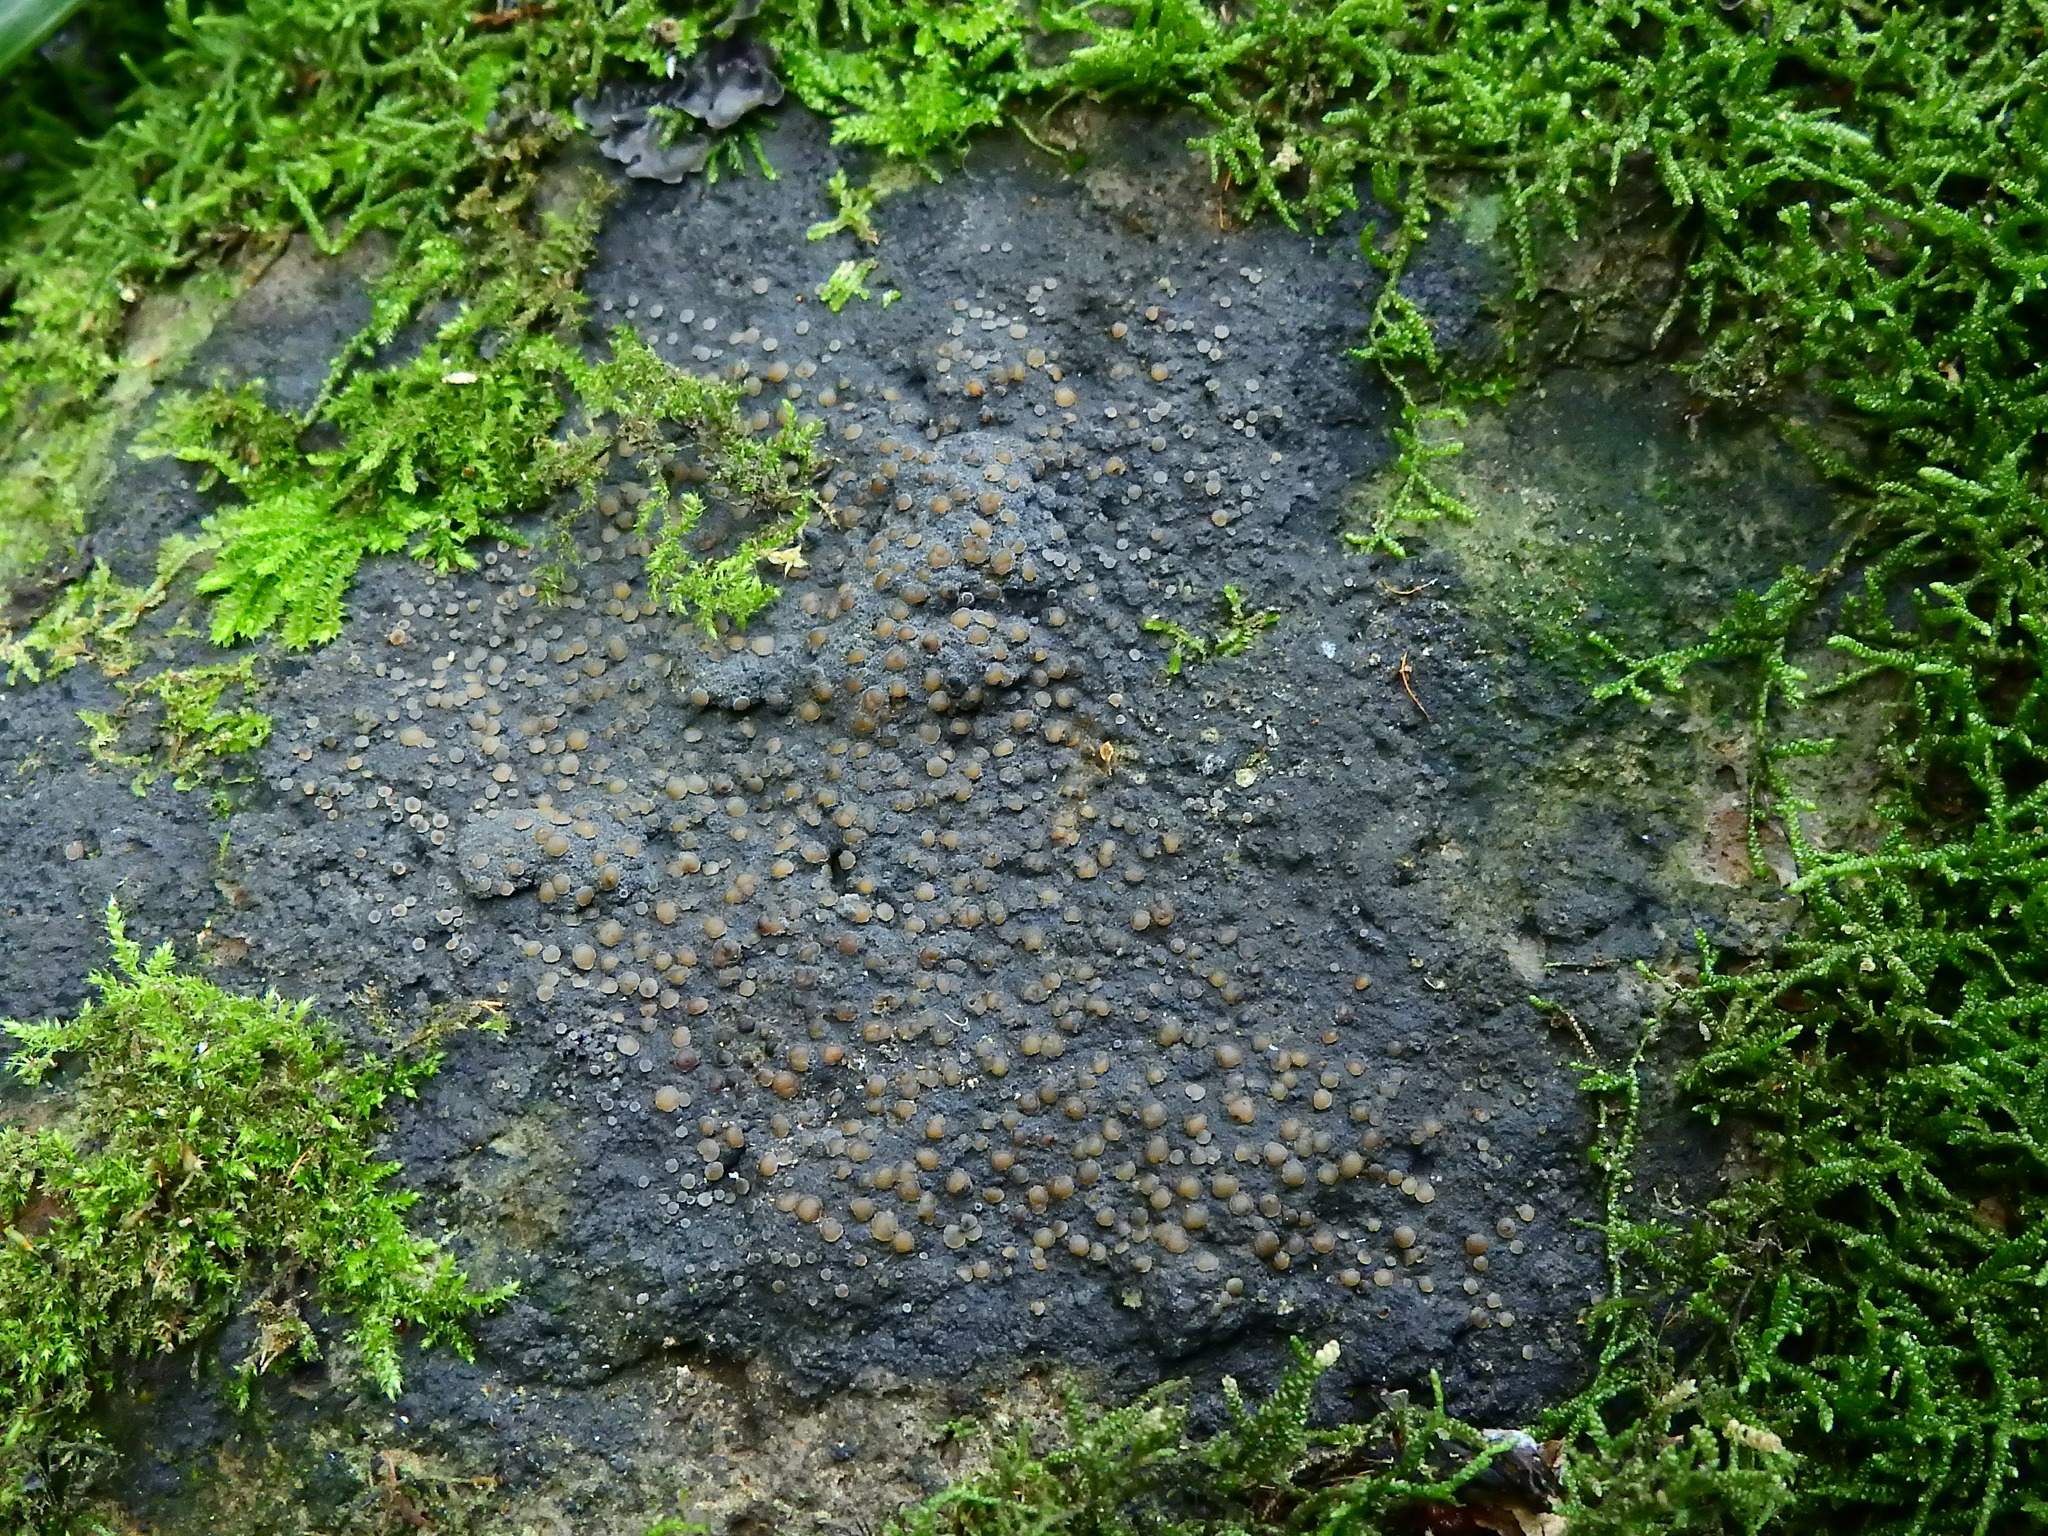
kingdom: Fungi
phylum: Ascomycota
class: Lecanoromycetes
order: Peltigerales
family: Pannariaceae
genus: Pannaria
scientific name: Pannaria immixta
